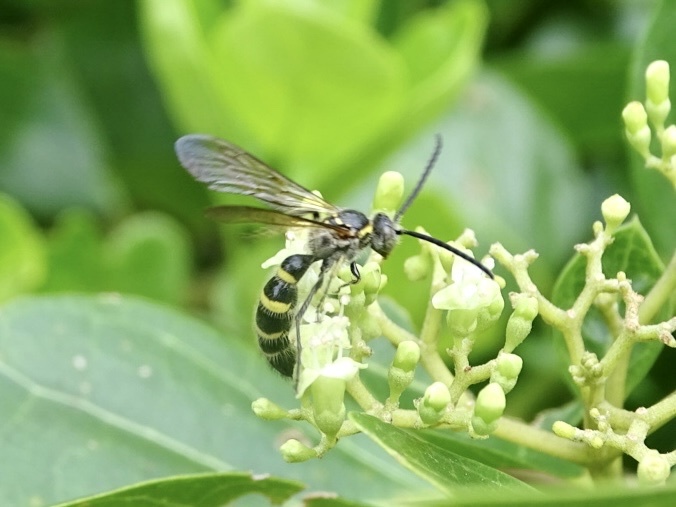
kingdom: Animalia
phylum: Arthropoda
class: Insecta
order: Hymenoptera
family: Scoliidae
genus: Campsomeris
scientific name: Campsomeris phalerata
